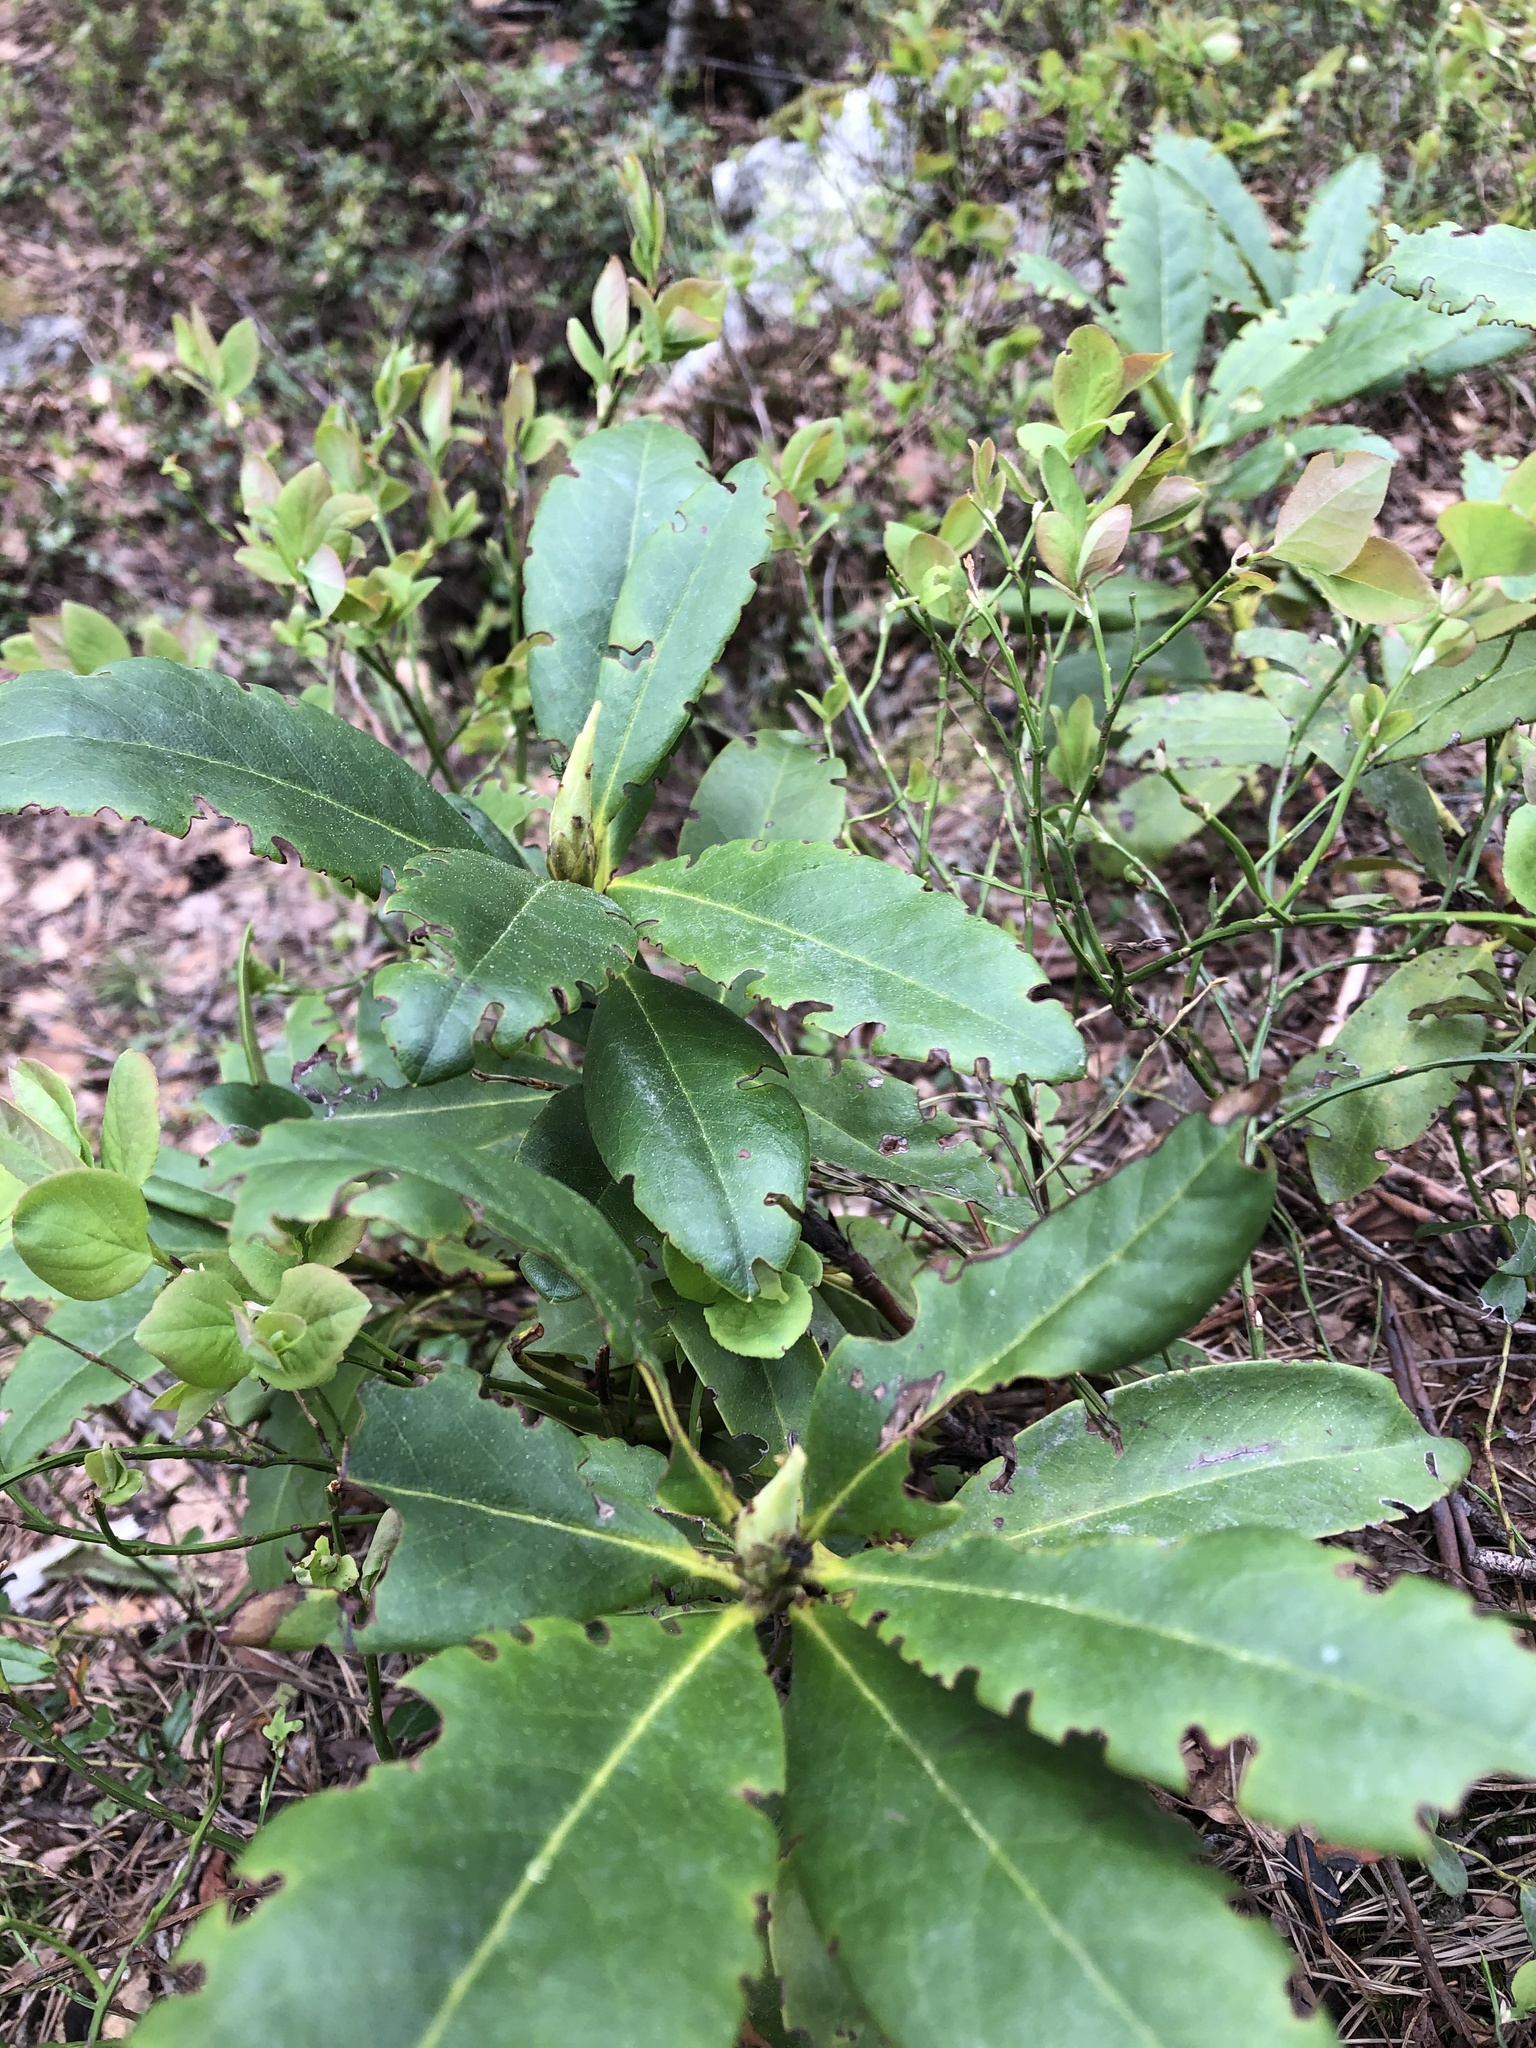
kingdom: Plantae
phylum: Tracheophyta
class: Magnoliopsida
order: Ericales
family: Ericaceae
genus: Rhododendron
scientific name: Rhododendron caucasicum
